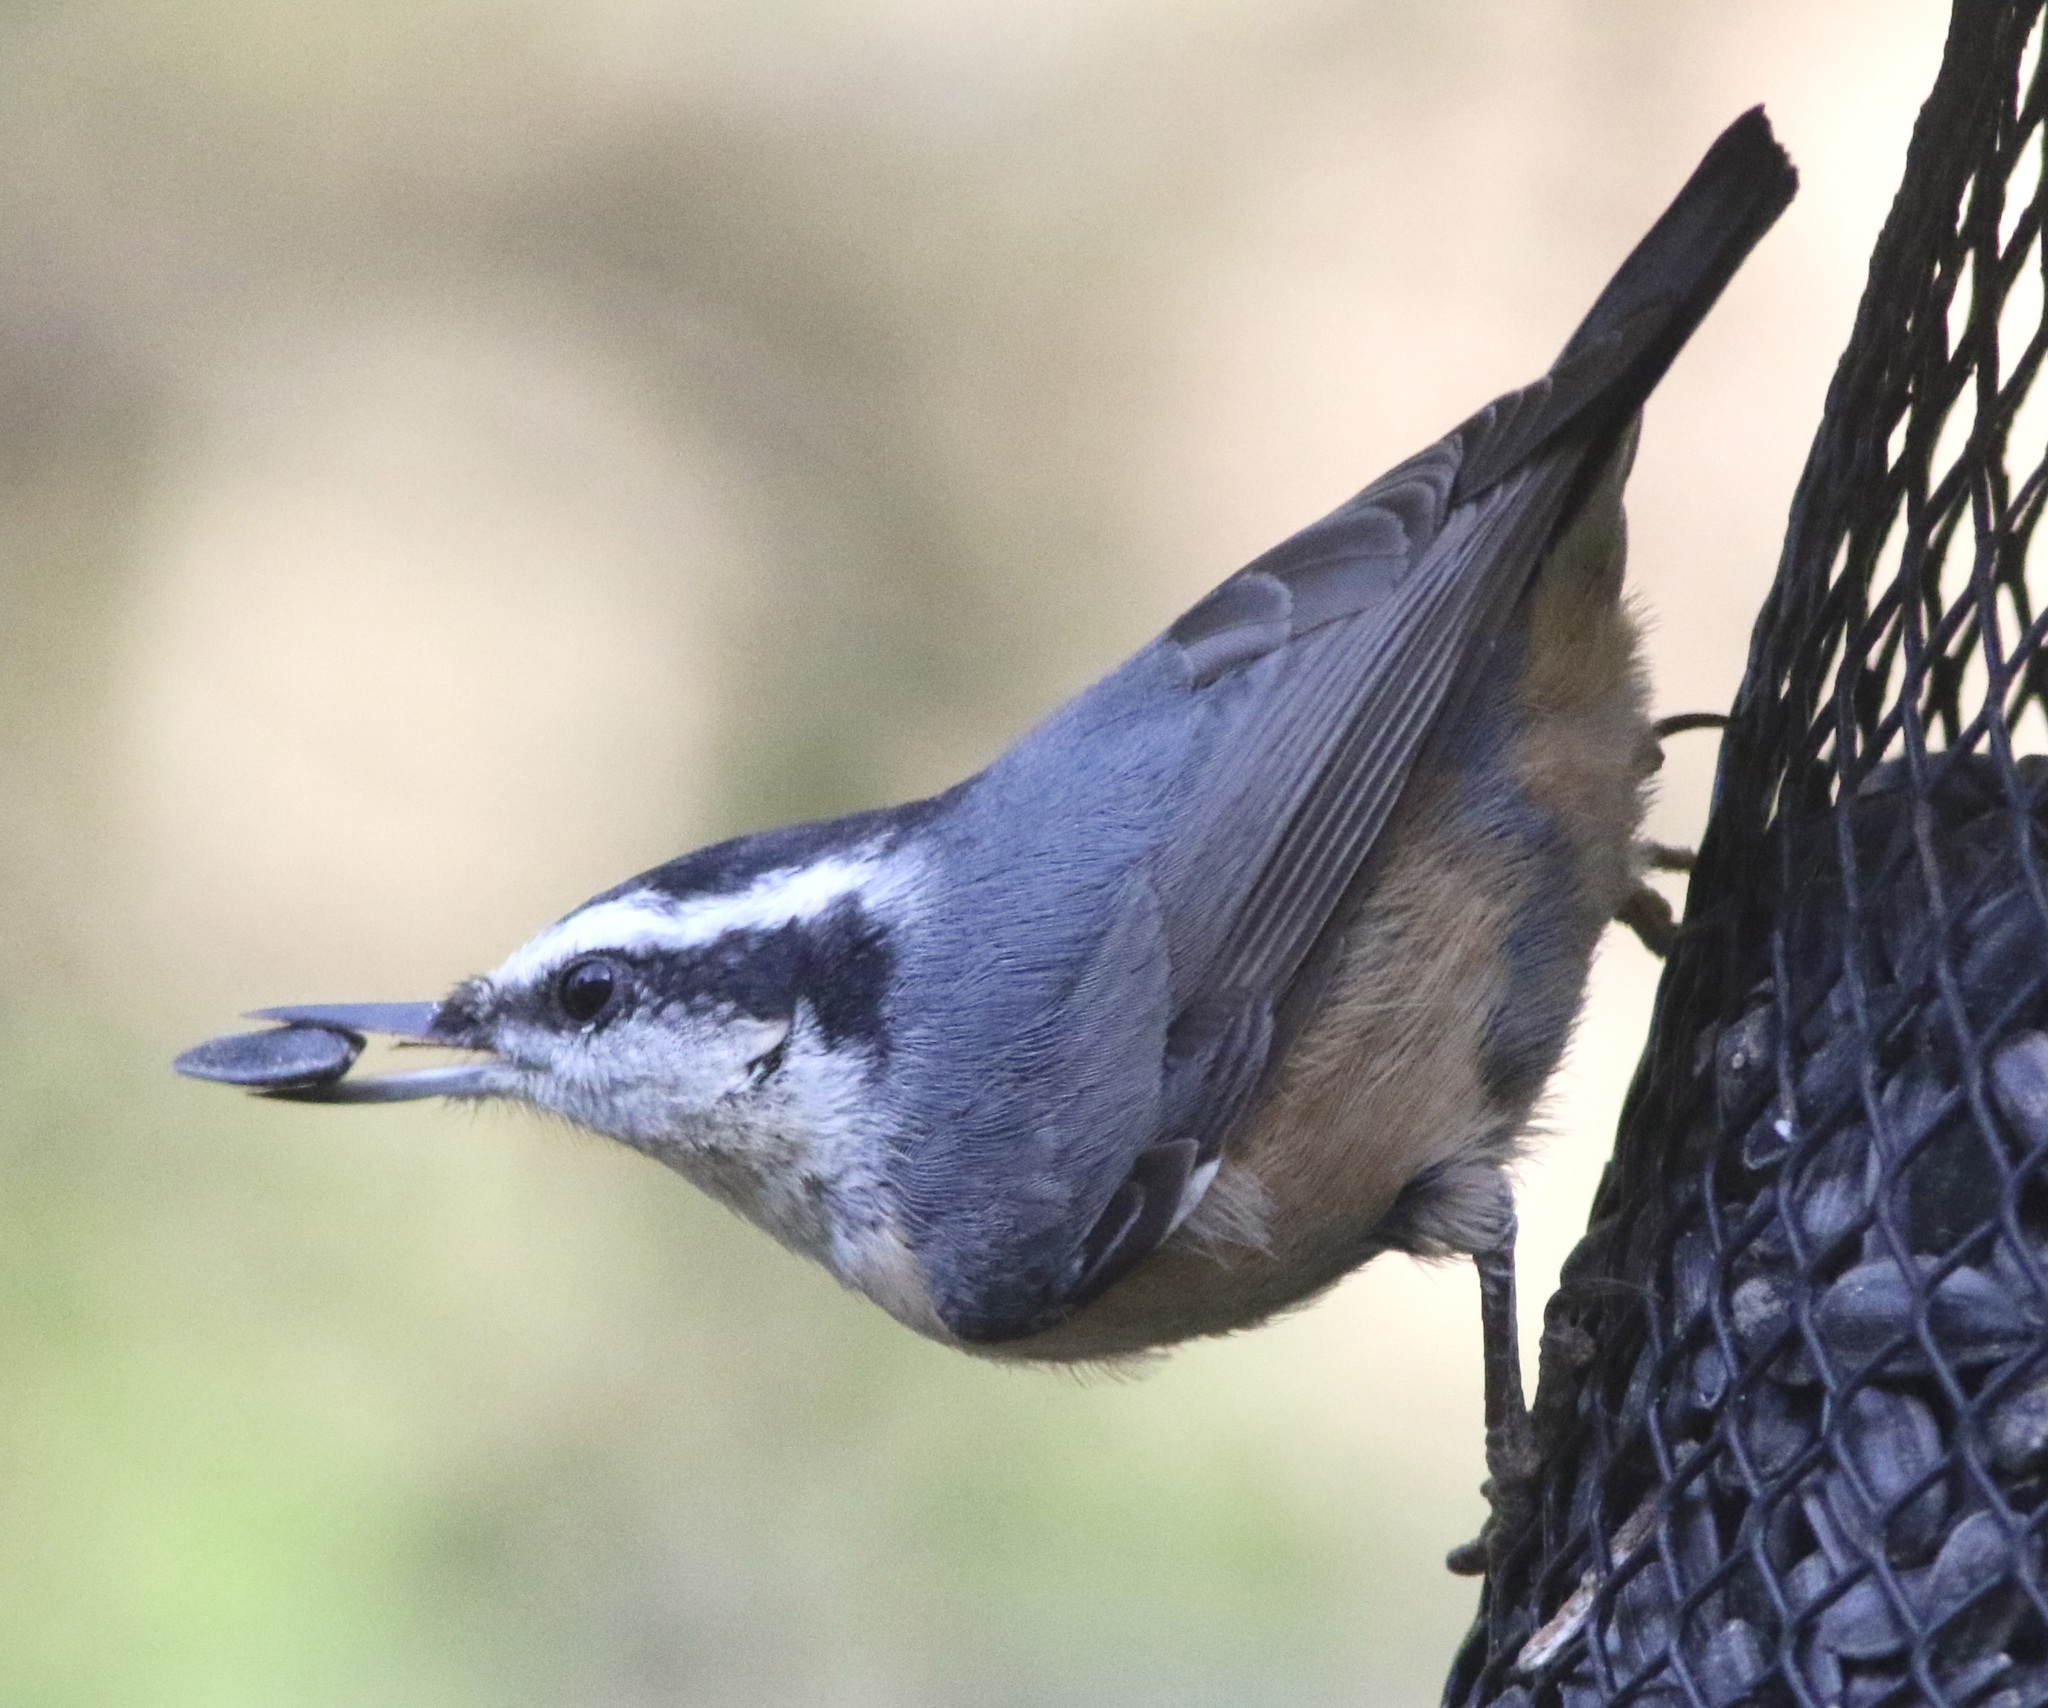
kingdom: Animalia
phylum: Chordata
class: Aves
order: Passeriformes
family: Sittidae
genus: Sitta
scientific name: Sitta canadensis
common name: Red-breasted nuthatch
